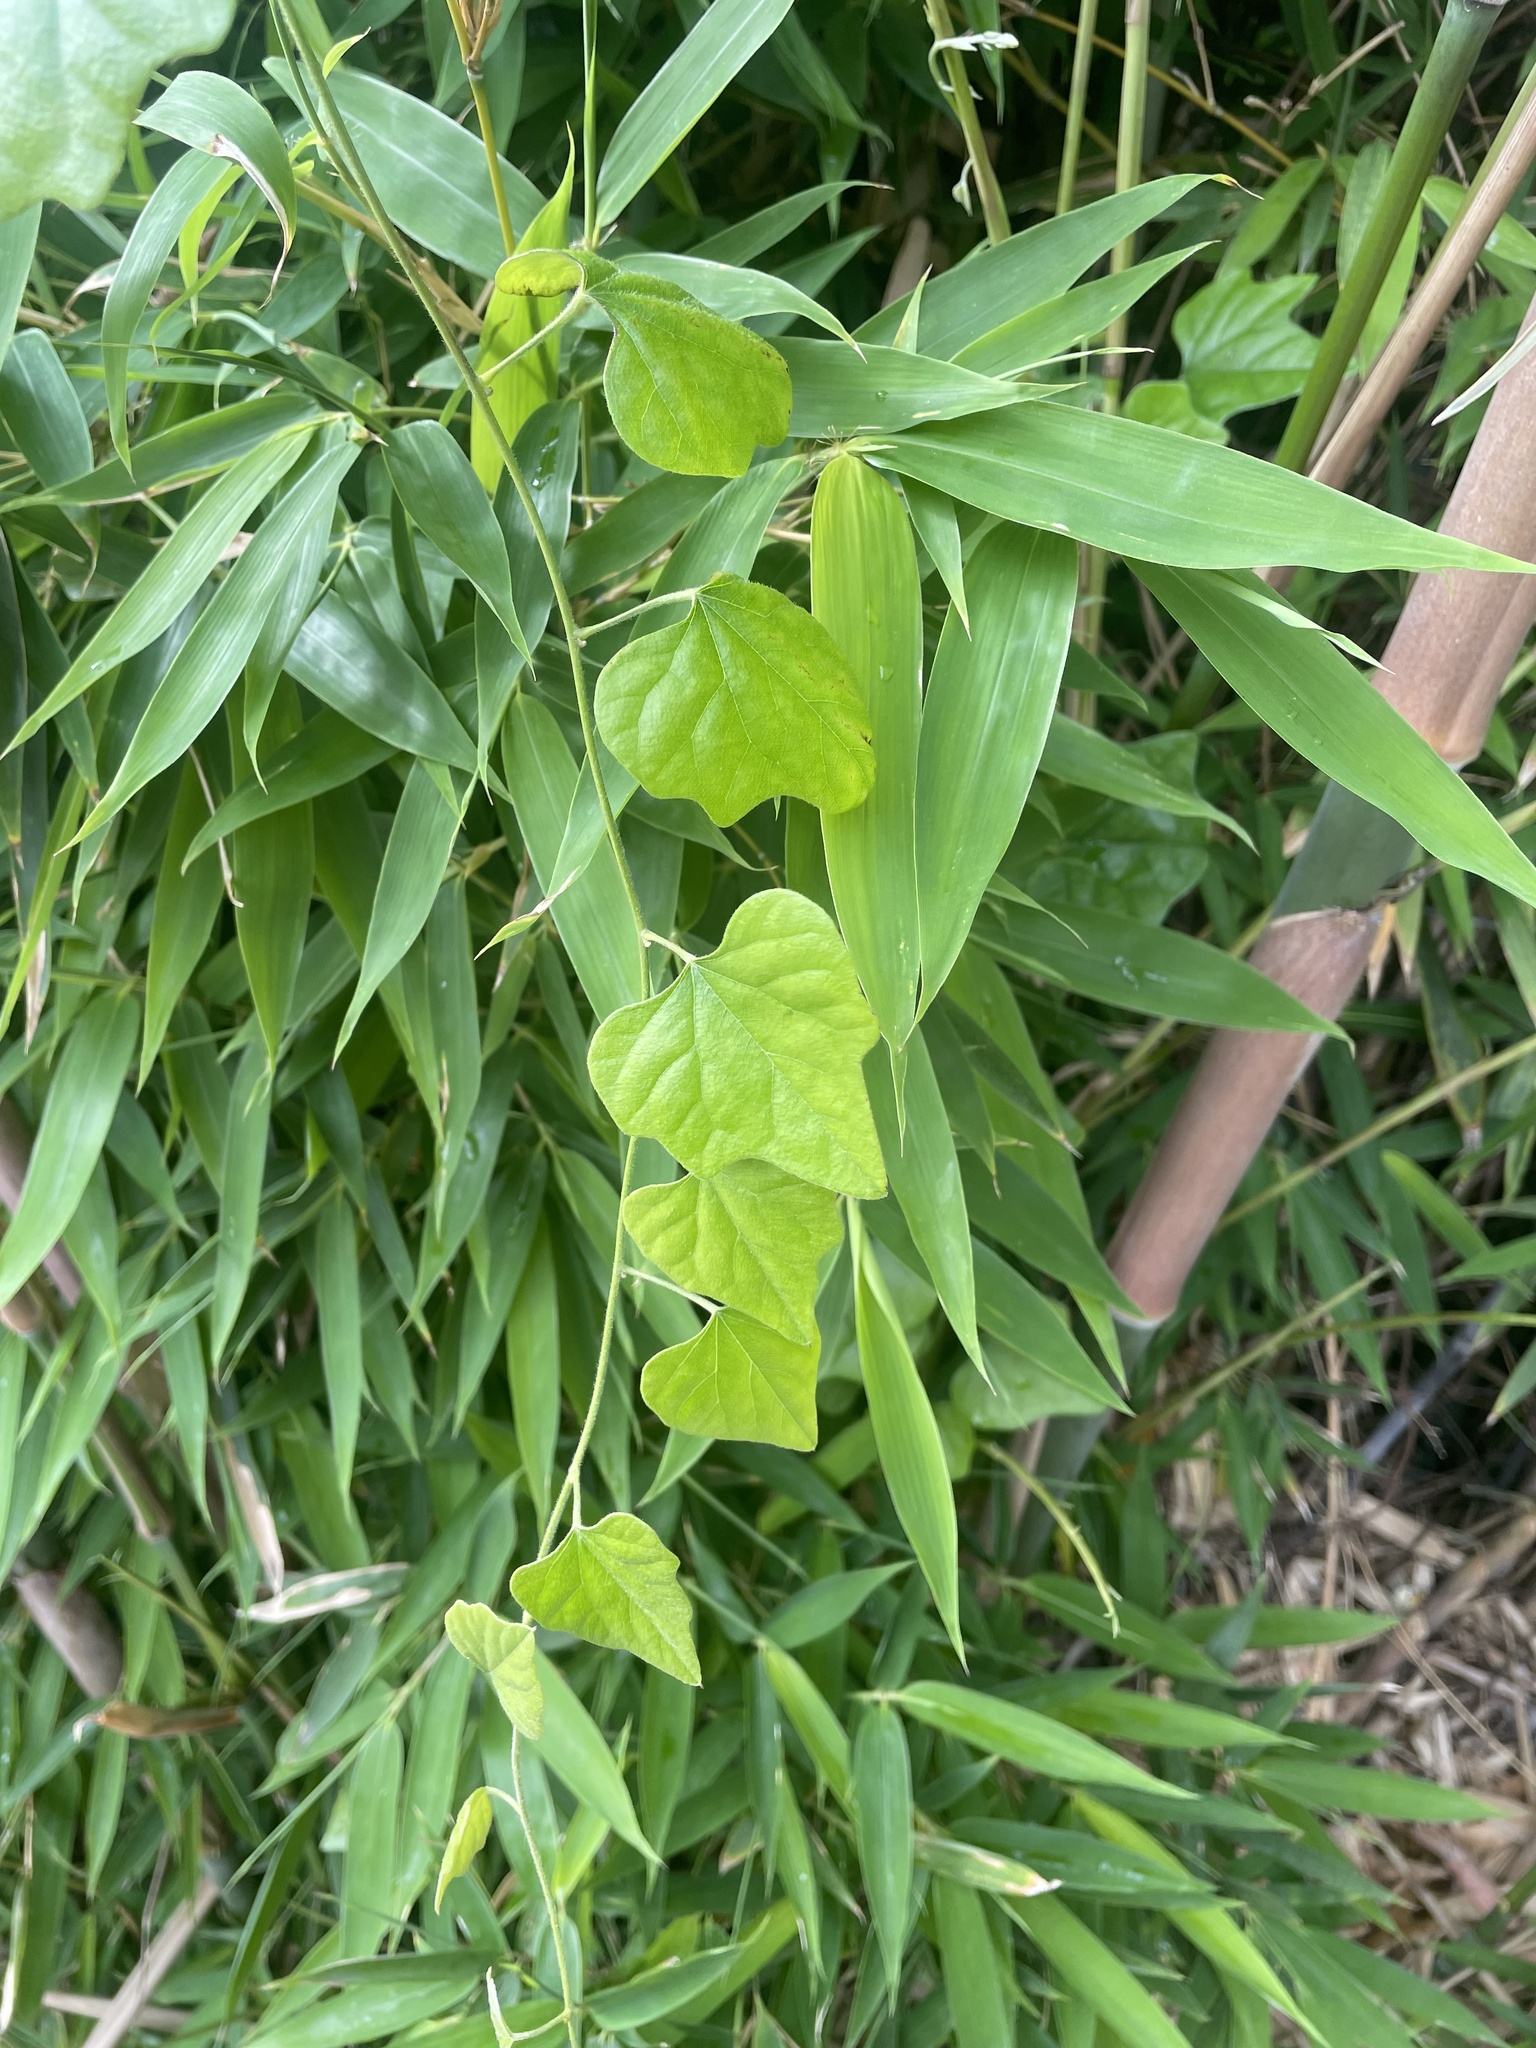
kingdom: Plantae
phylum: Tracheophyta
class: Magnoliopsida
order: Ranunculales
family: Menispermaceae
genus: Cocculus
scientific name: Cocculus carolinus
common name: Carolina moonseed
